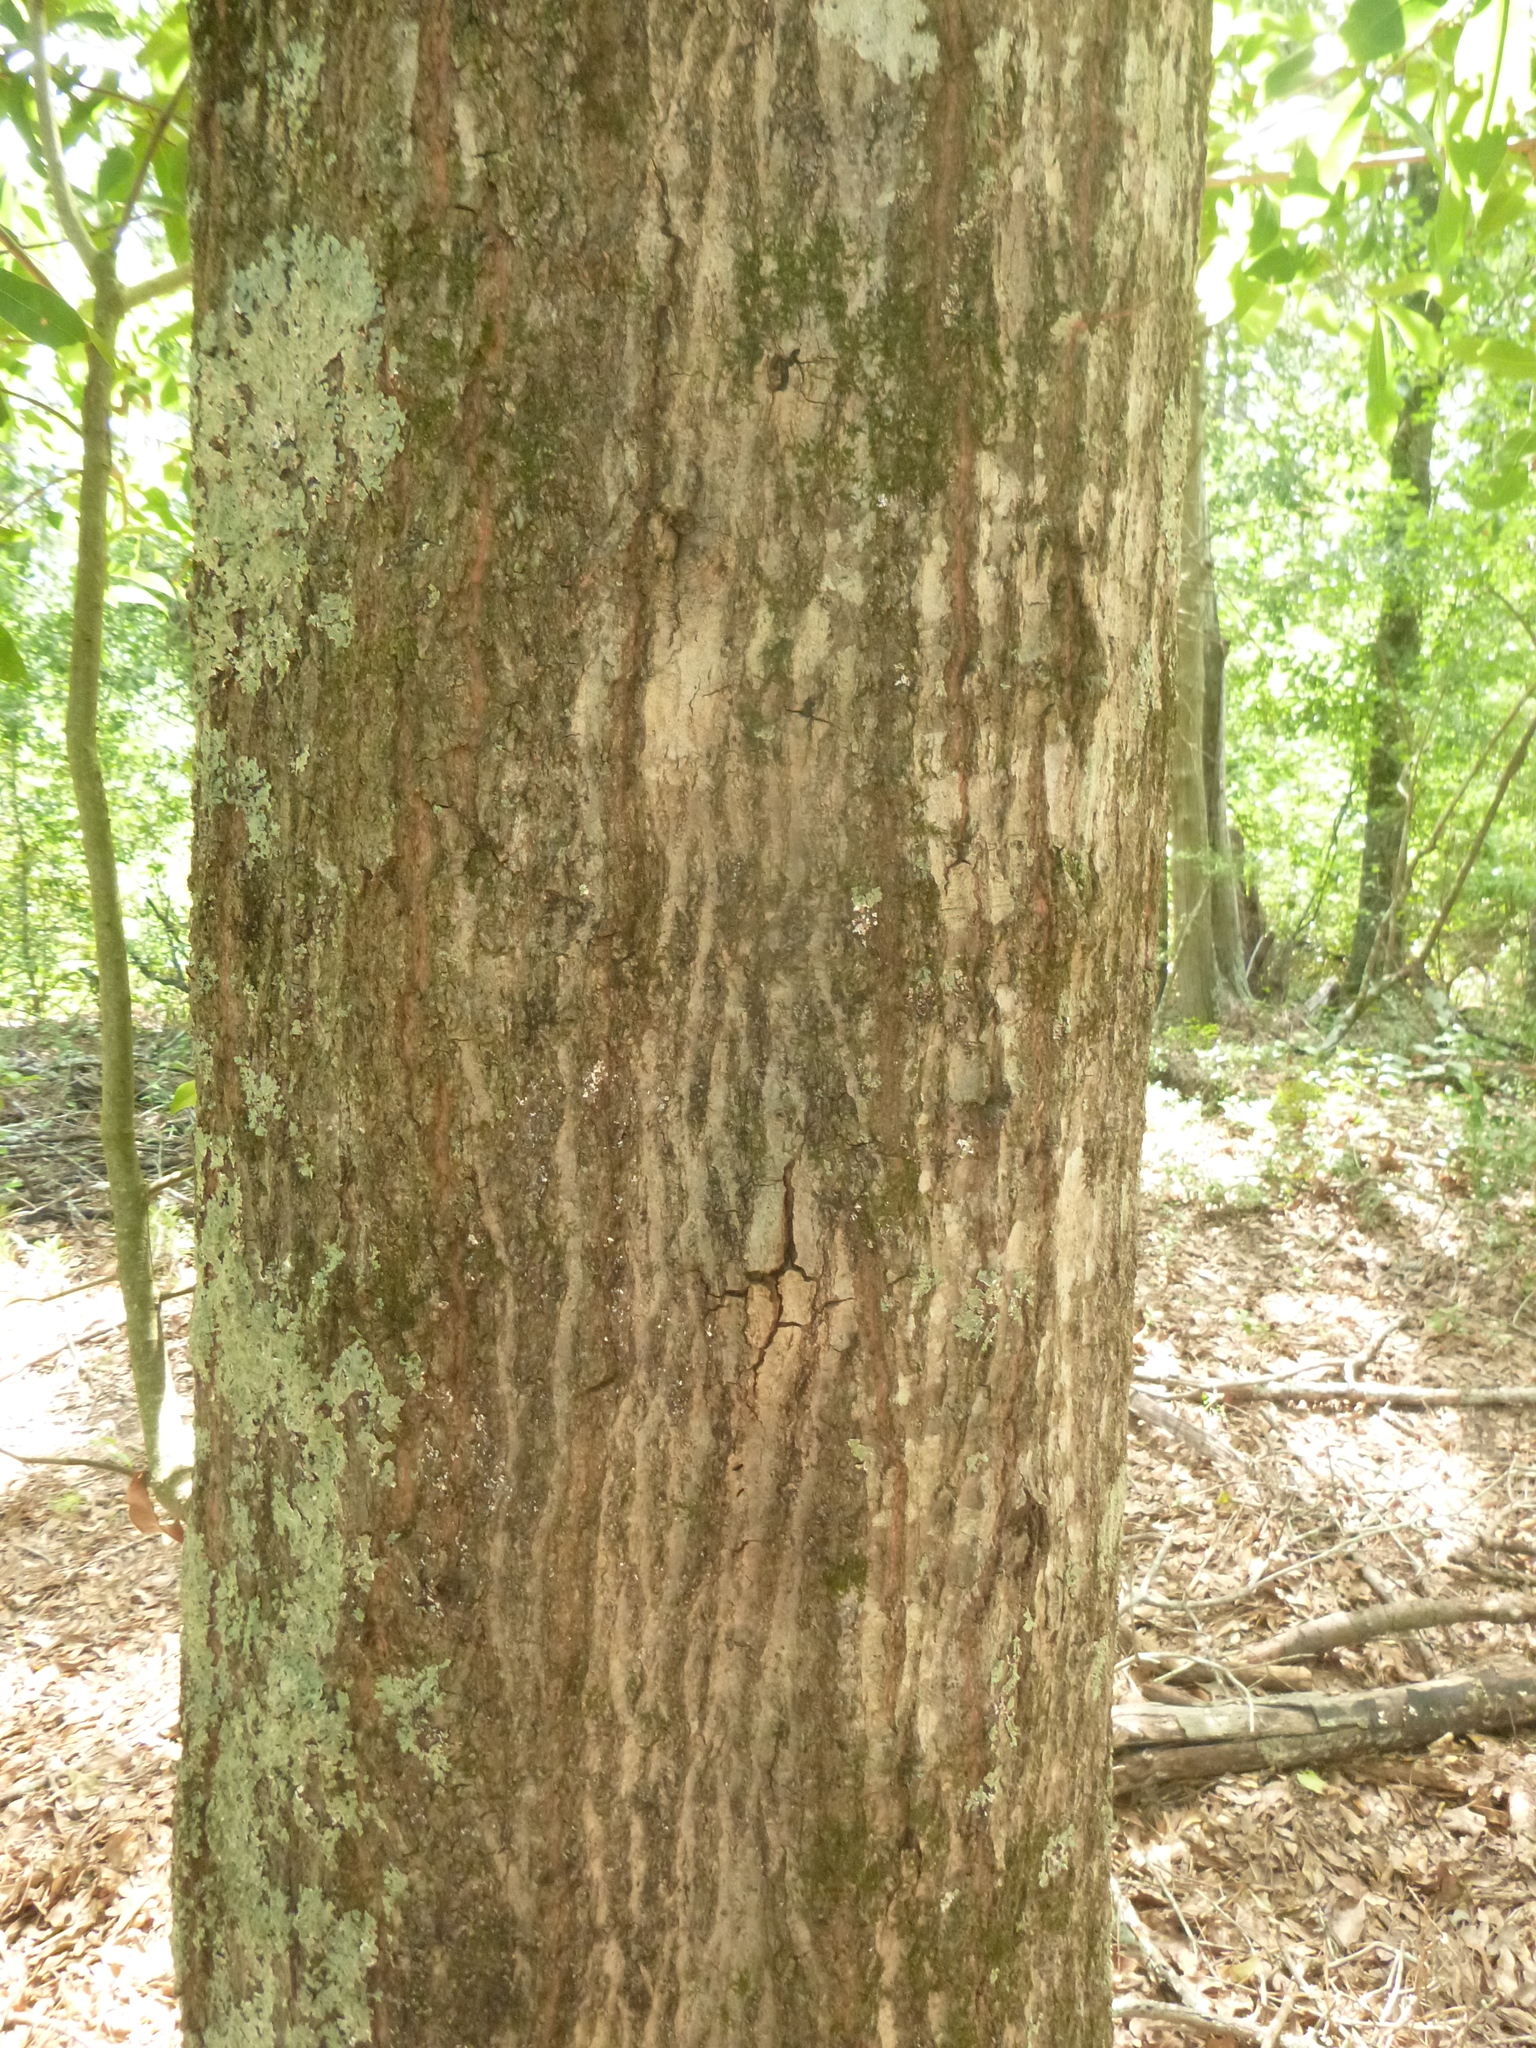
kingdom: Plantae
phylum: Tracheophyta
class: Magnoliopsida
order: Fagales
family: Fagaceae
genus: Quercus
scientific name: Quercus hemisphaerica
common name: Darlington oak
